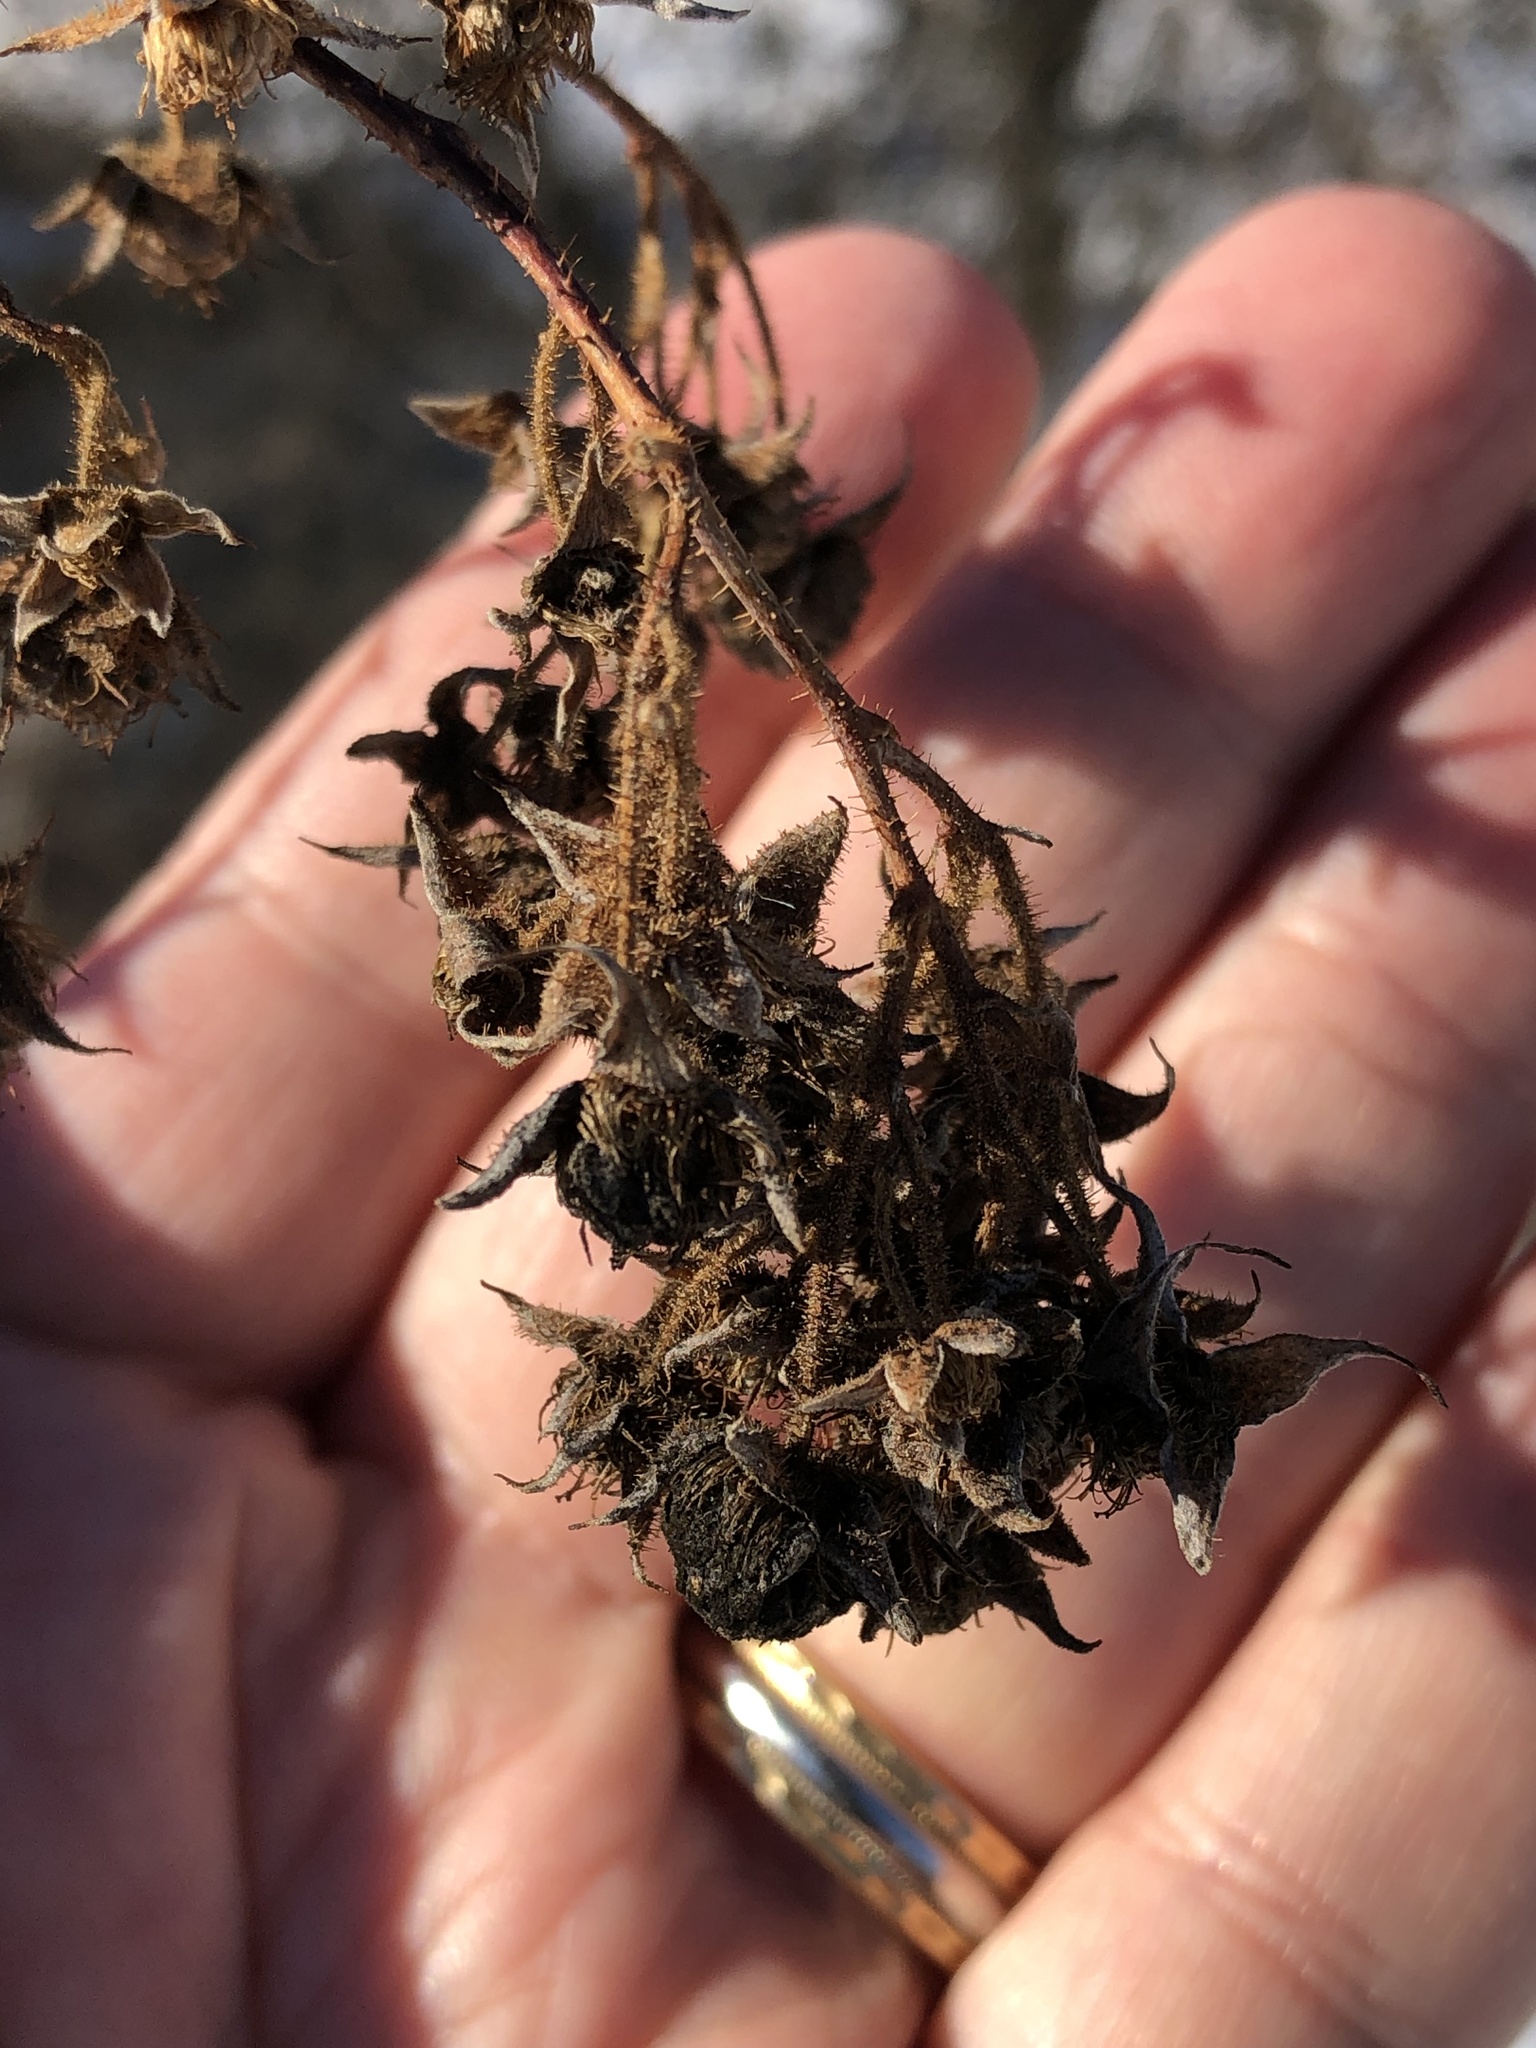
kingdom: Plantae
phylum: Tracheophyta
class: Magnoliopsida
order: Rosales
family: Rosaceae
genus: Rubus
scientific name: Rubus odoratus
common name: Purple-flowered raspberry
